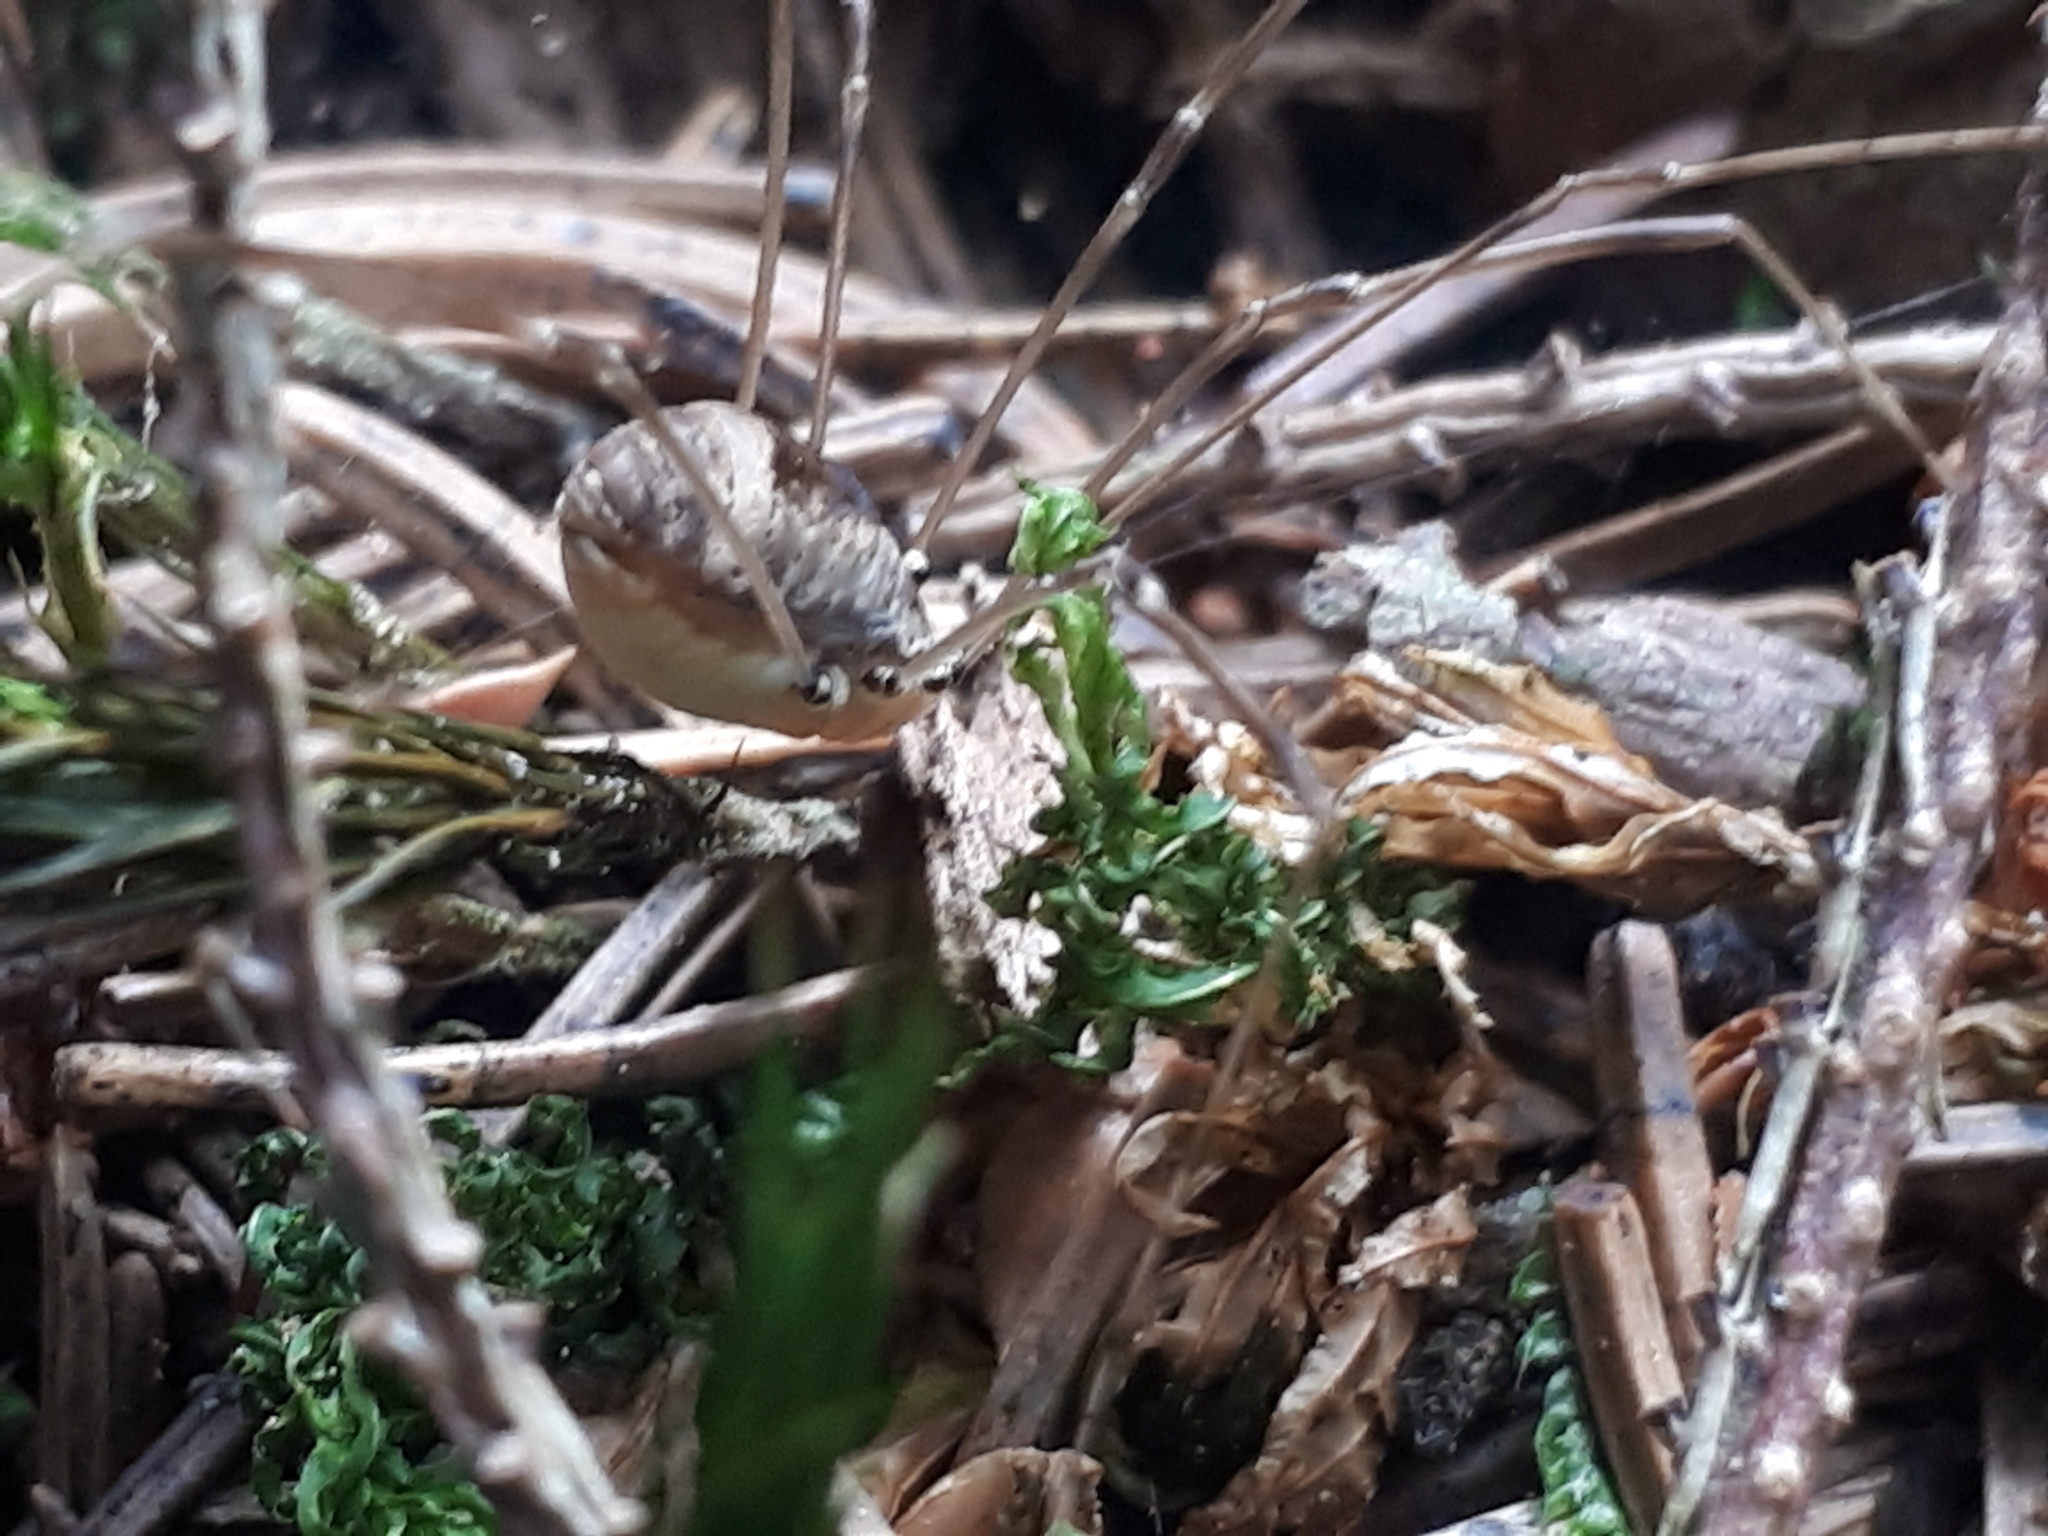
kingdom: Animalia
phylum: Arthropoda
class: Arachnida
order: Opiliones
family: Sclerosomatidae
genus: Leiobunum
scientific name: Leiobunum blackwalli
